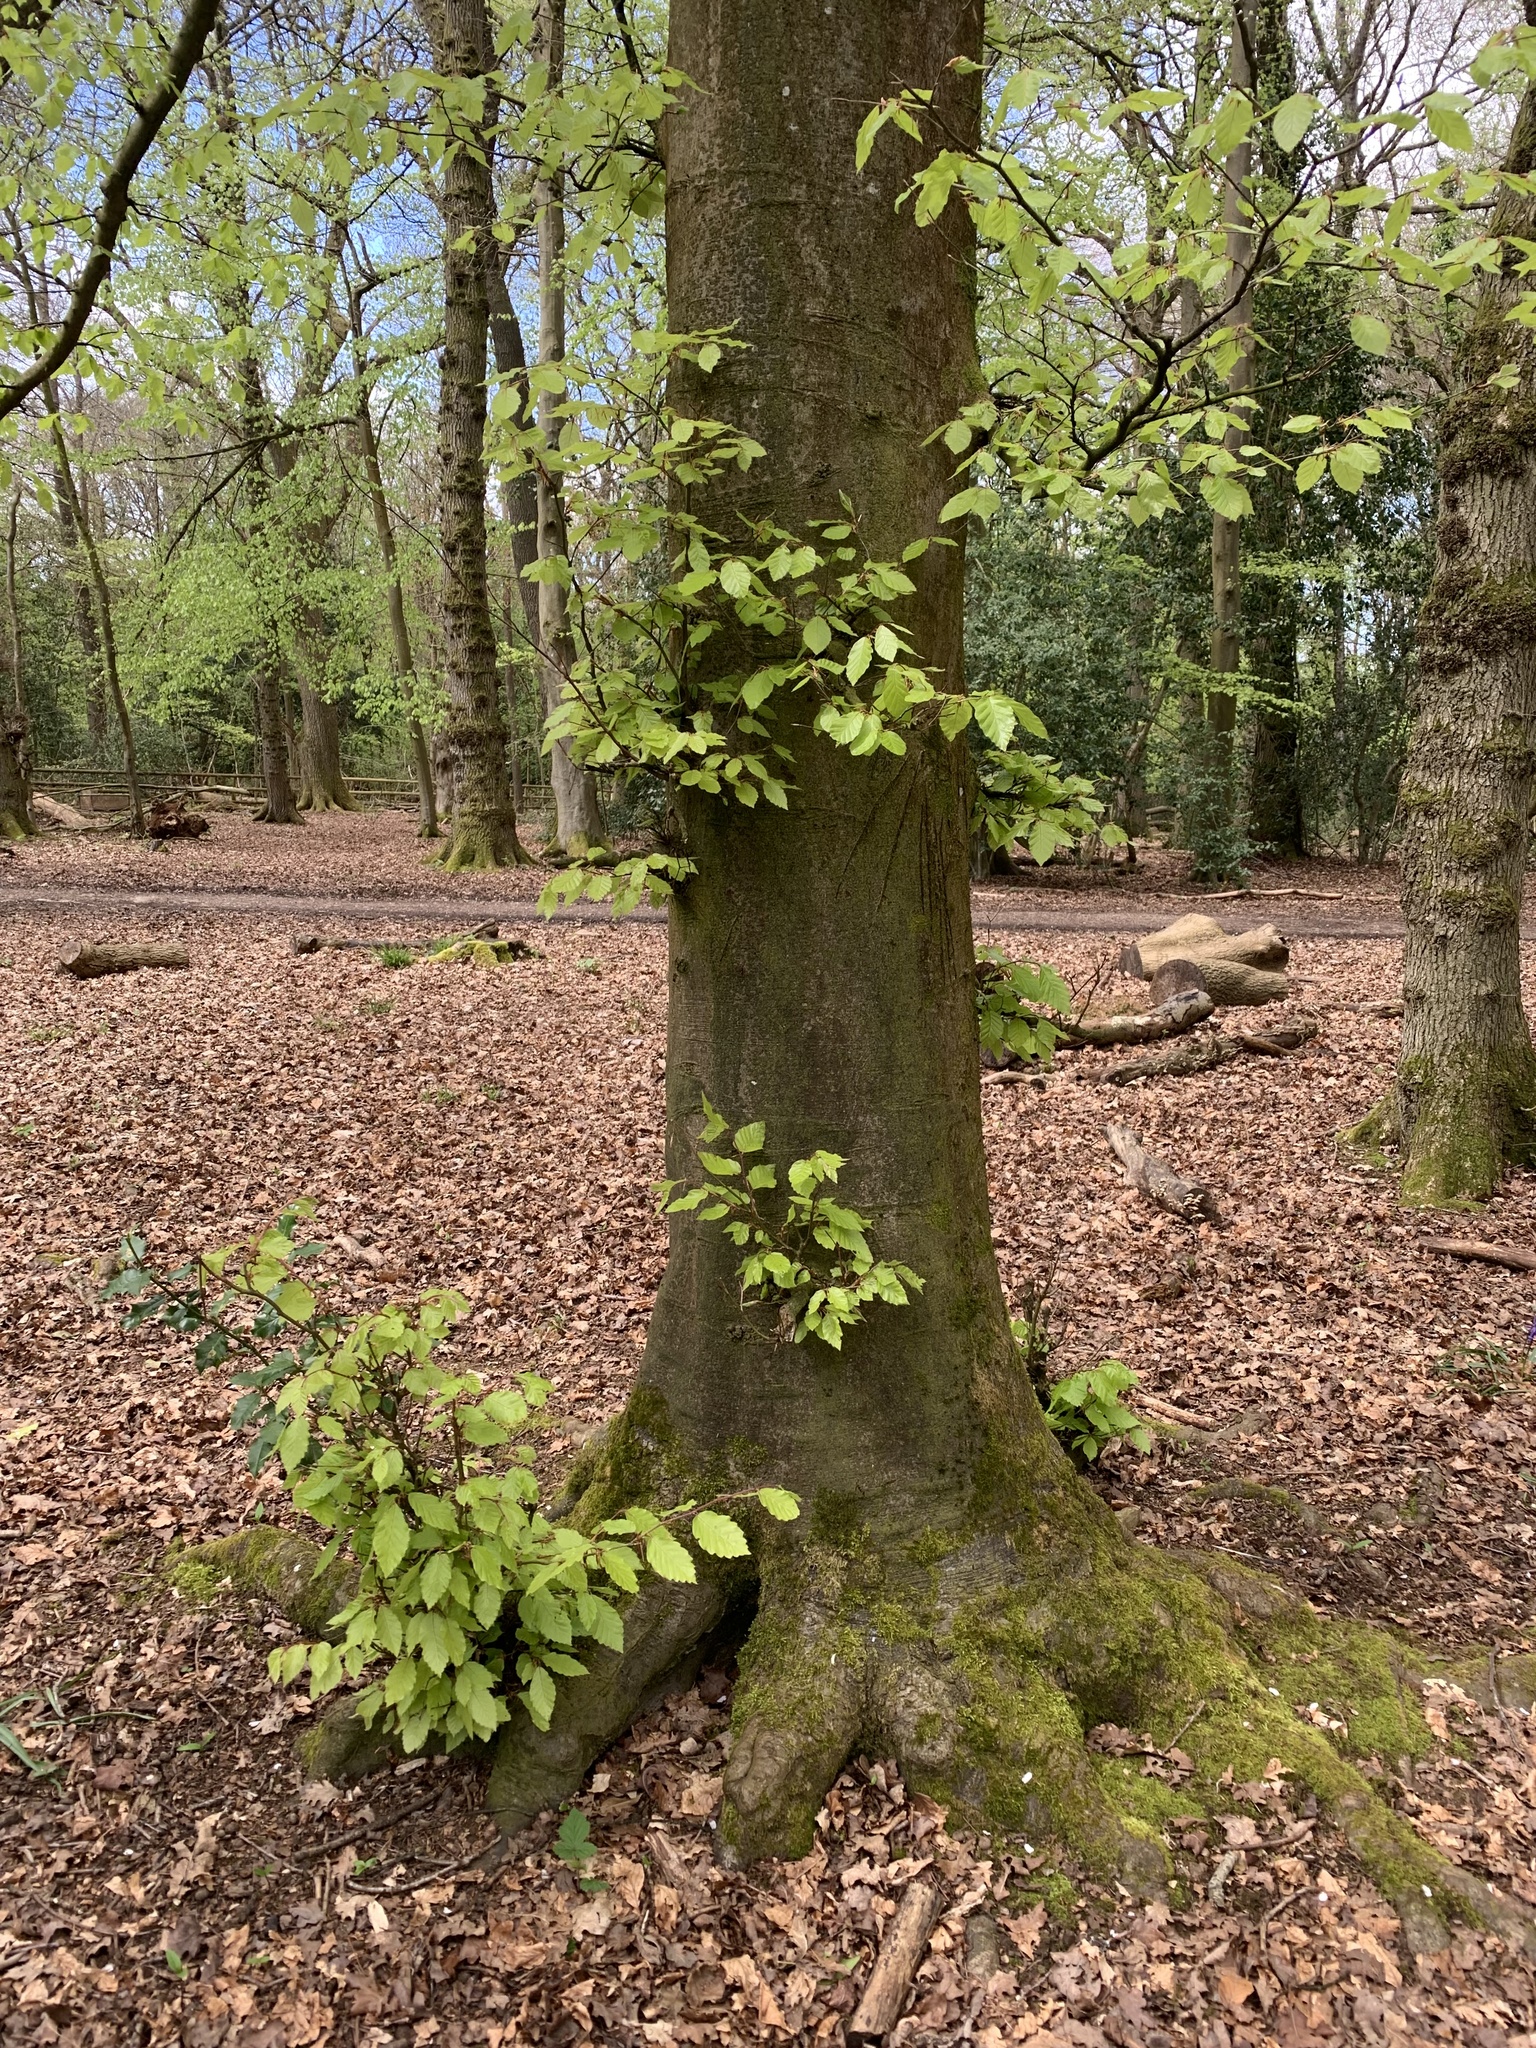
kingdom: Plantae
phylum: Tracheophyta
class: Magnoliopsida
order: Fagales
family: Fagaceae
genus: Fagus
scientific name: Fagus sylvatica
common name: Beech
